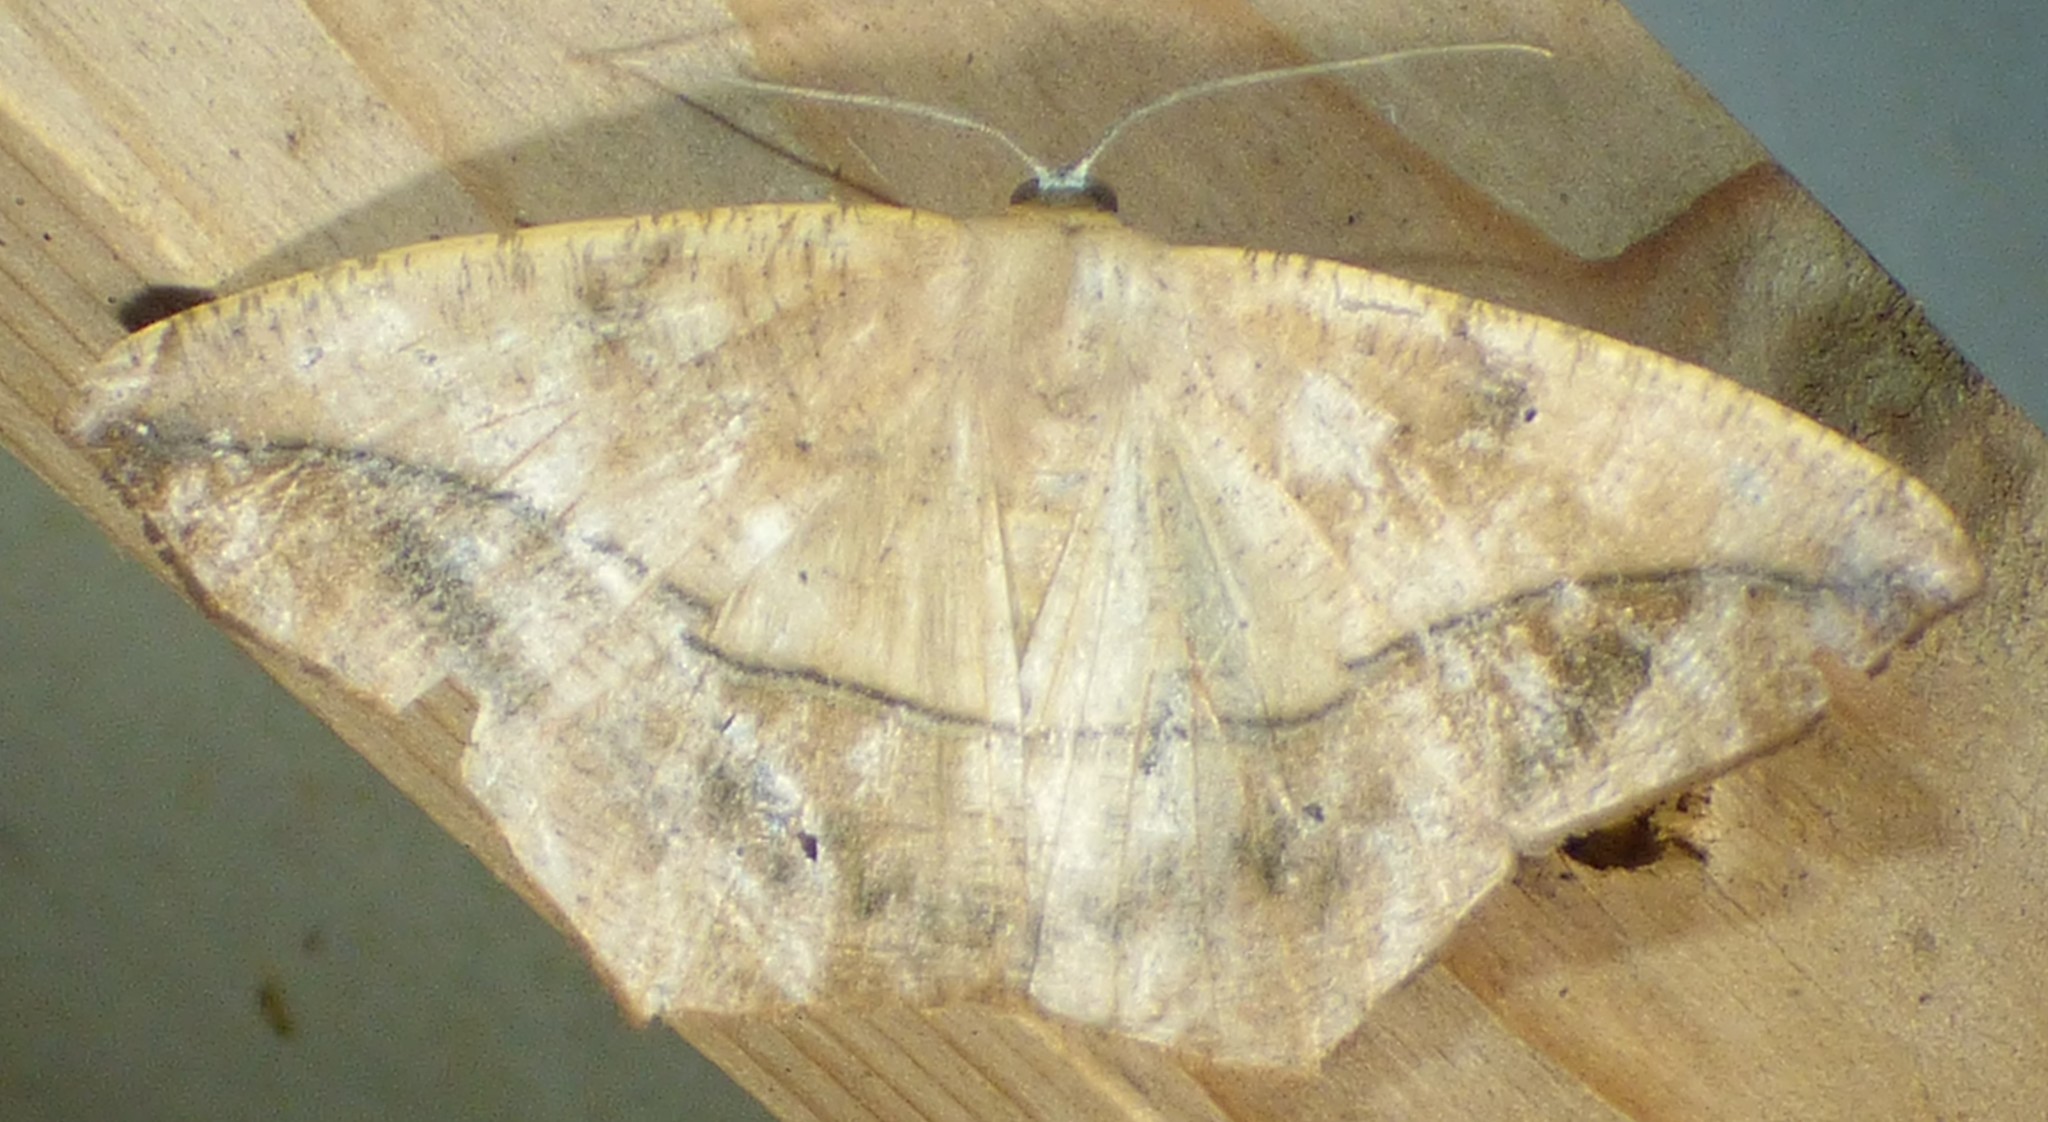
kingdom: Animalia
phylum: Arthropoda
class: Insecta
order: Lepidoptera
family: Geometridae
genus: Prochoerodes
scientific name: Prochoerodes lineola
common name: Large maple spanworm
